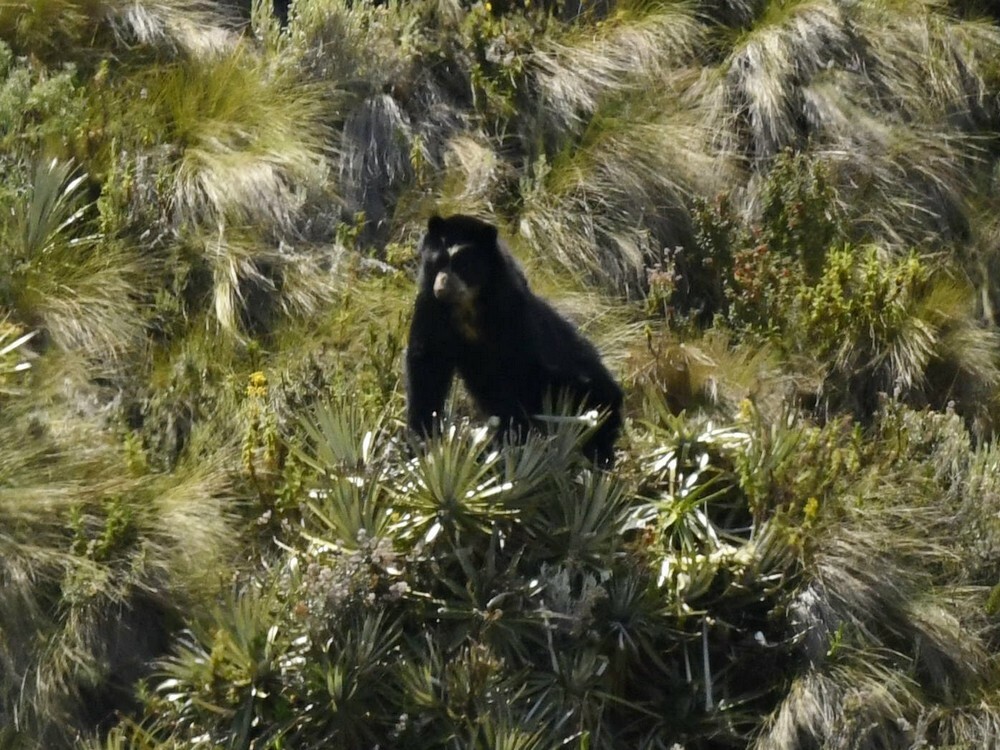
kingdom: Animalia
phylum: Chordata
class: Mammalia
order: Carnivora
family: Ursidae
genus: Tremarctos
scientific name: Tremarctos ornatus
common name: Spectacled bear
